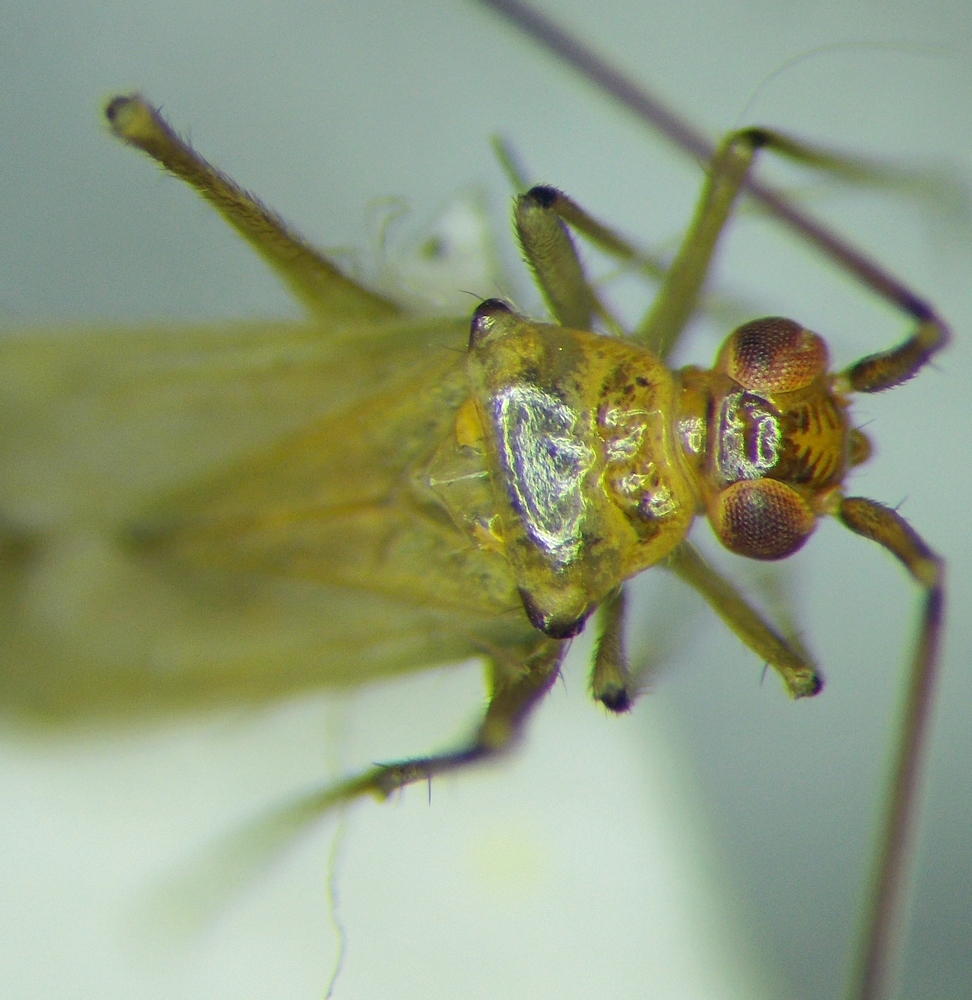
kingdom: Animalia
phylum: Arthropoda
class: Insecta
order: Hemiptera
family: Miridae
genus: Blepharidopterus
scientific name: Blepharidopterus angulatus
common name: Plant bug
